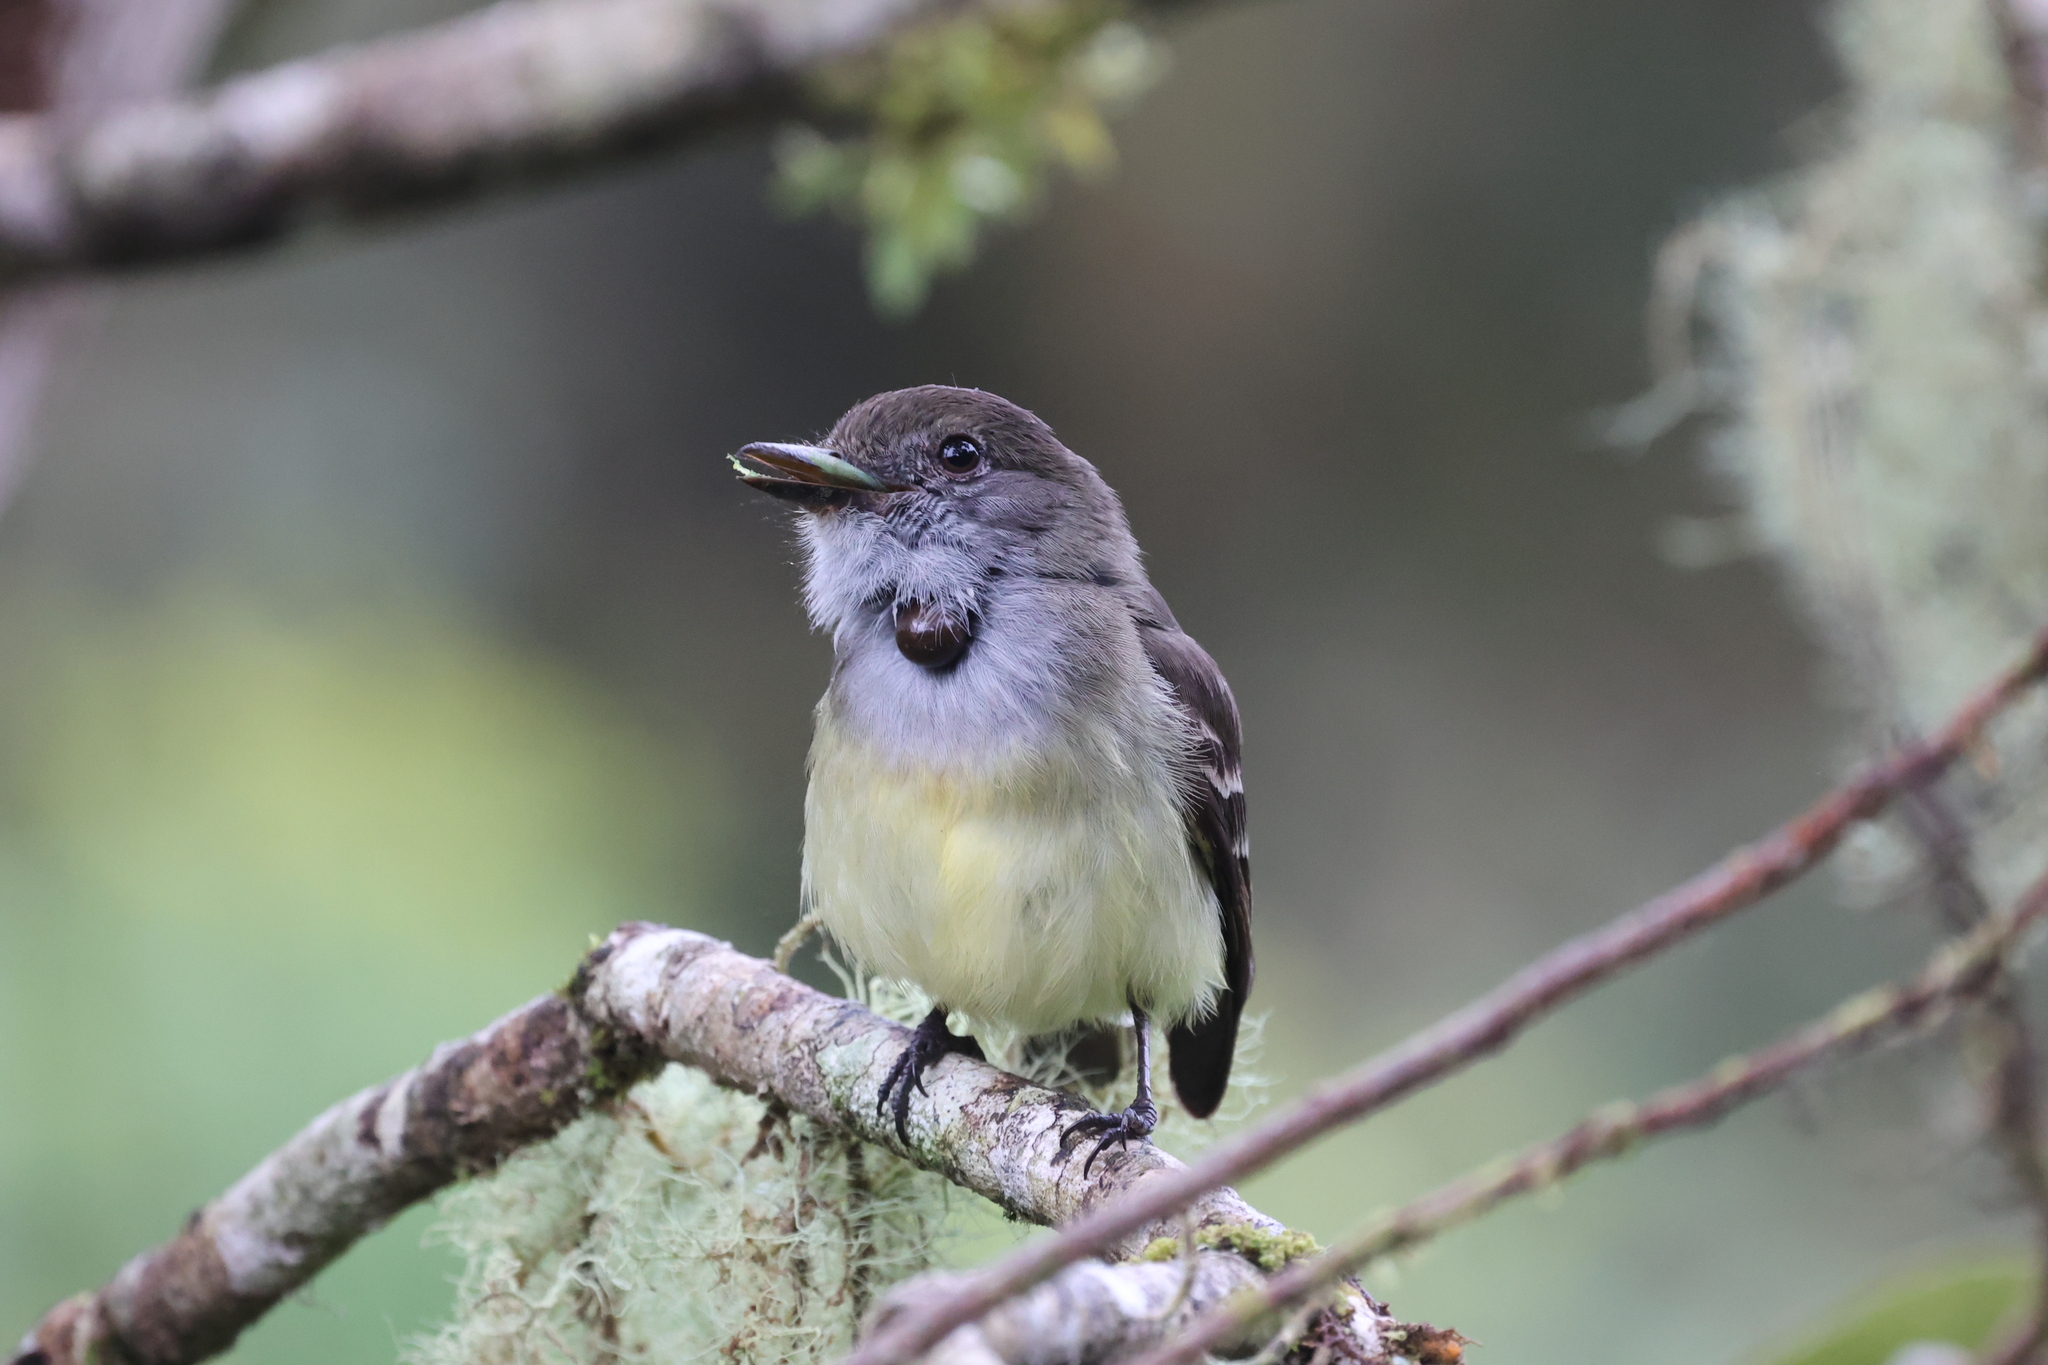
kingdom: Animalia
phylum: Chordata
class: Aves
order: Passeriformes
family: Tyrannidae
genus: Myiarchus
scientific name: Myiarchus cephalotes
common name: Pale-edged flycatcher
